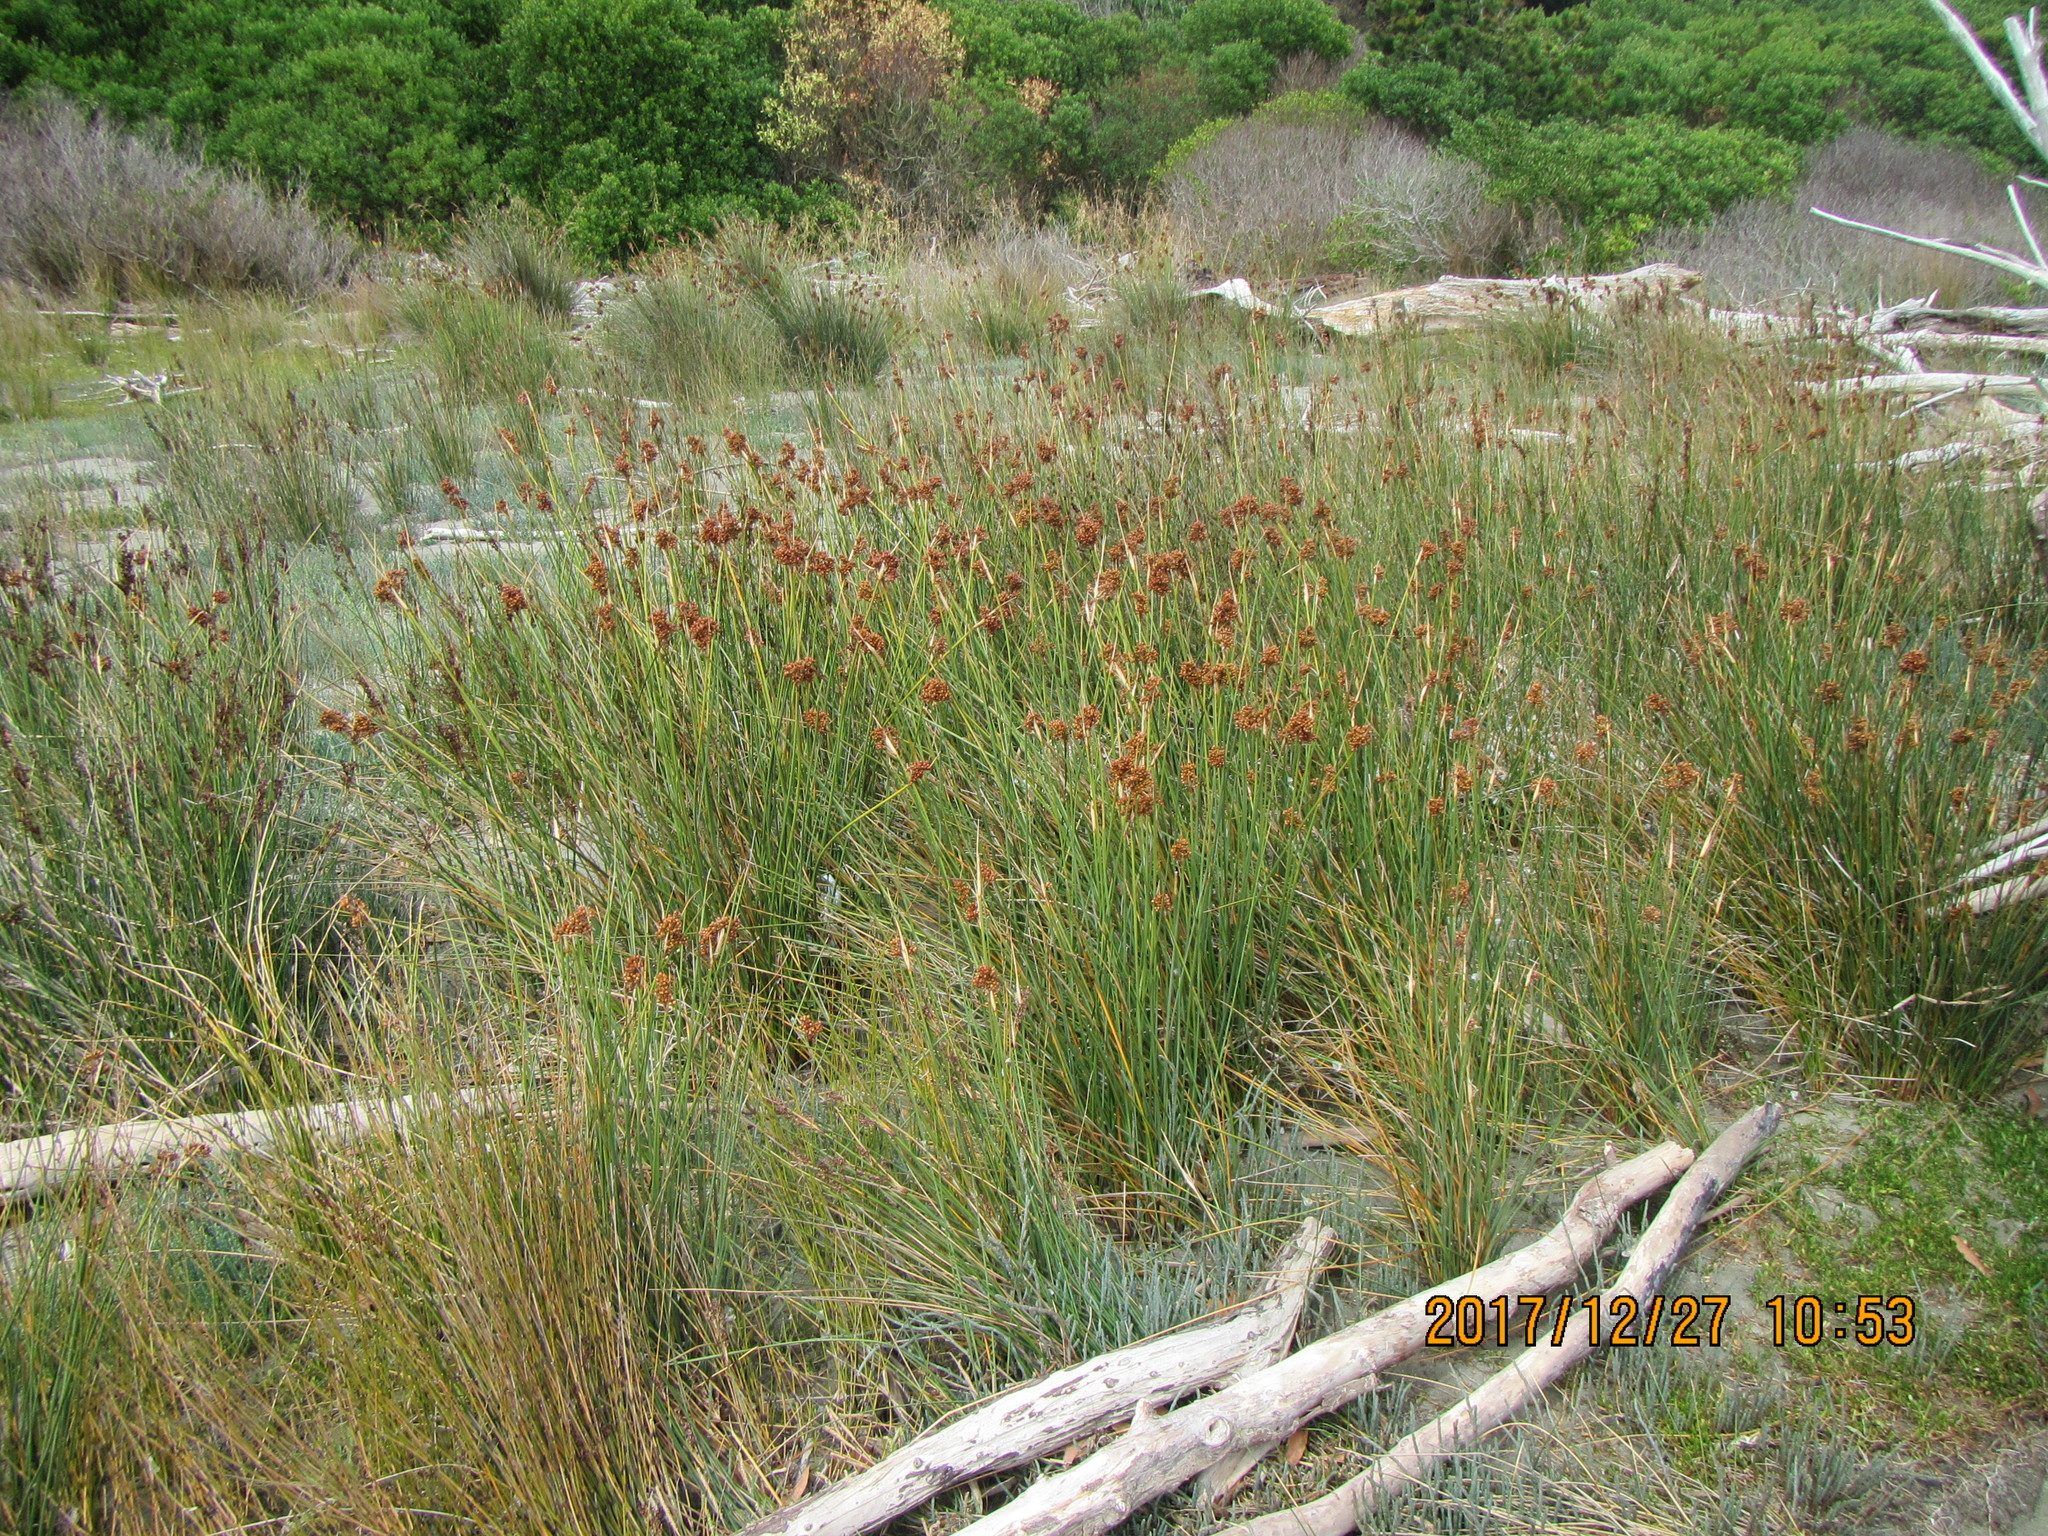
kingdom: Plantae
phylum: Tracheophyta
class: Liliopsida
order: Poales
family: Juncaceae
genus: Juncus
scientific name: Juncus acutus
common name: Sharp rush
